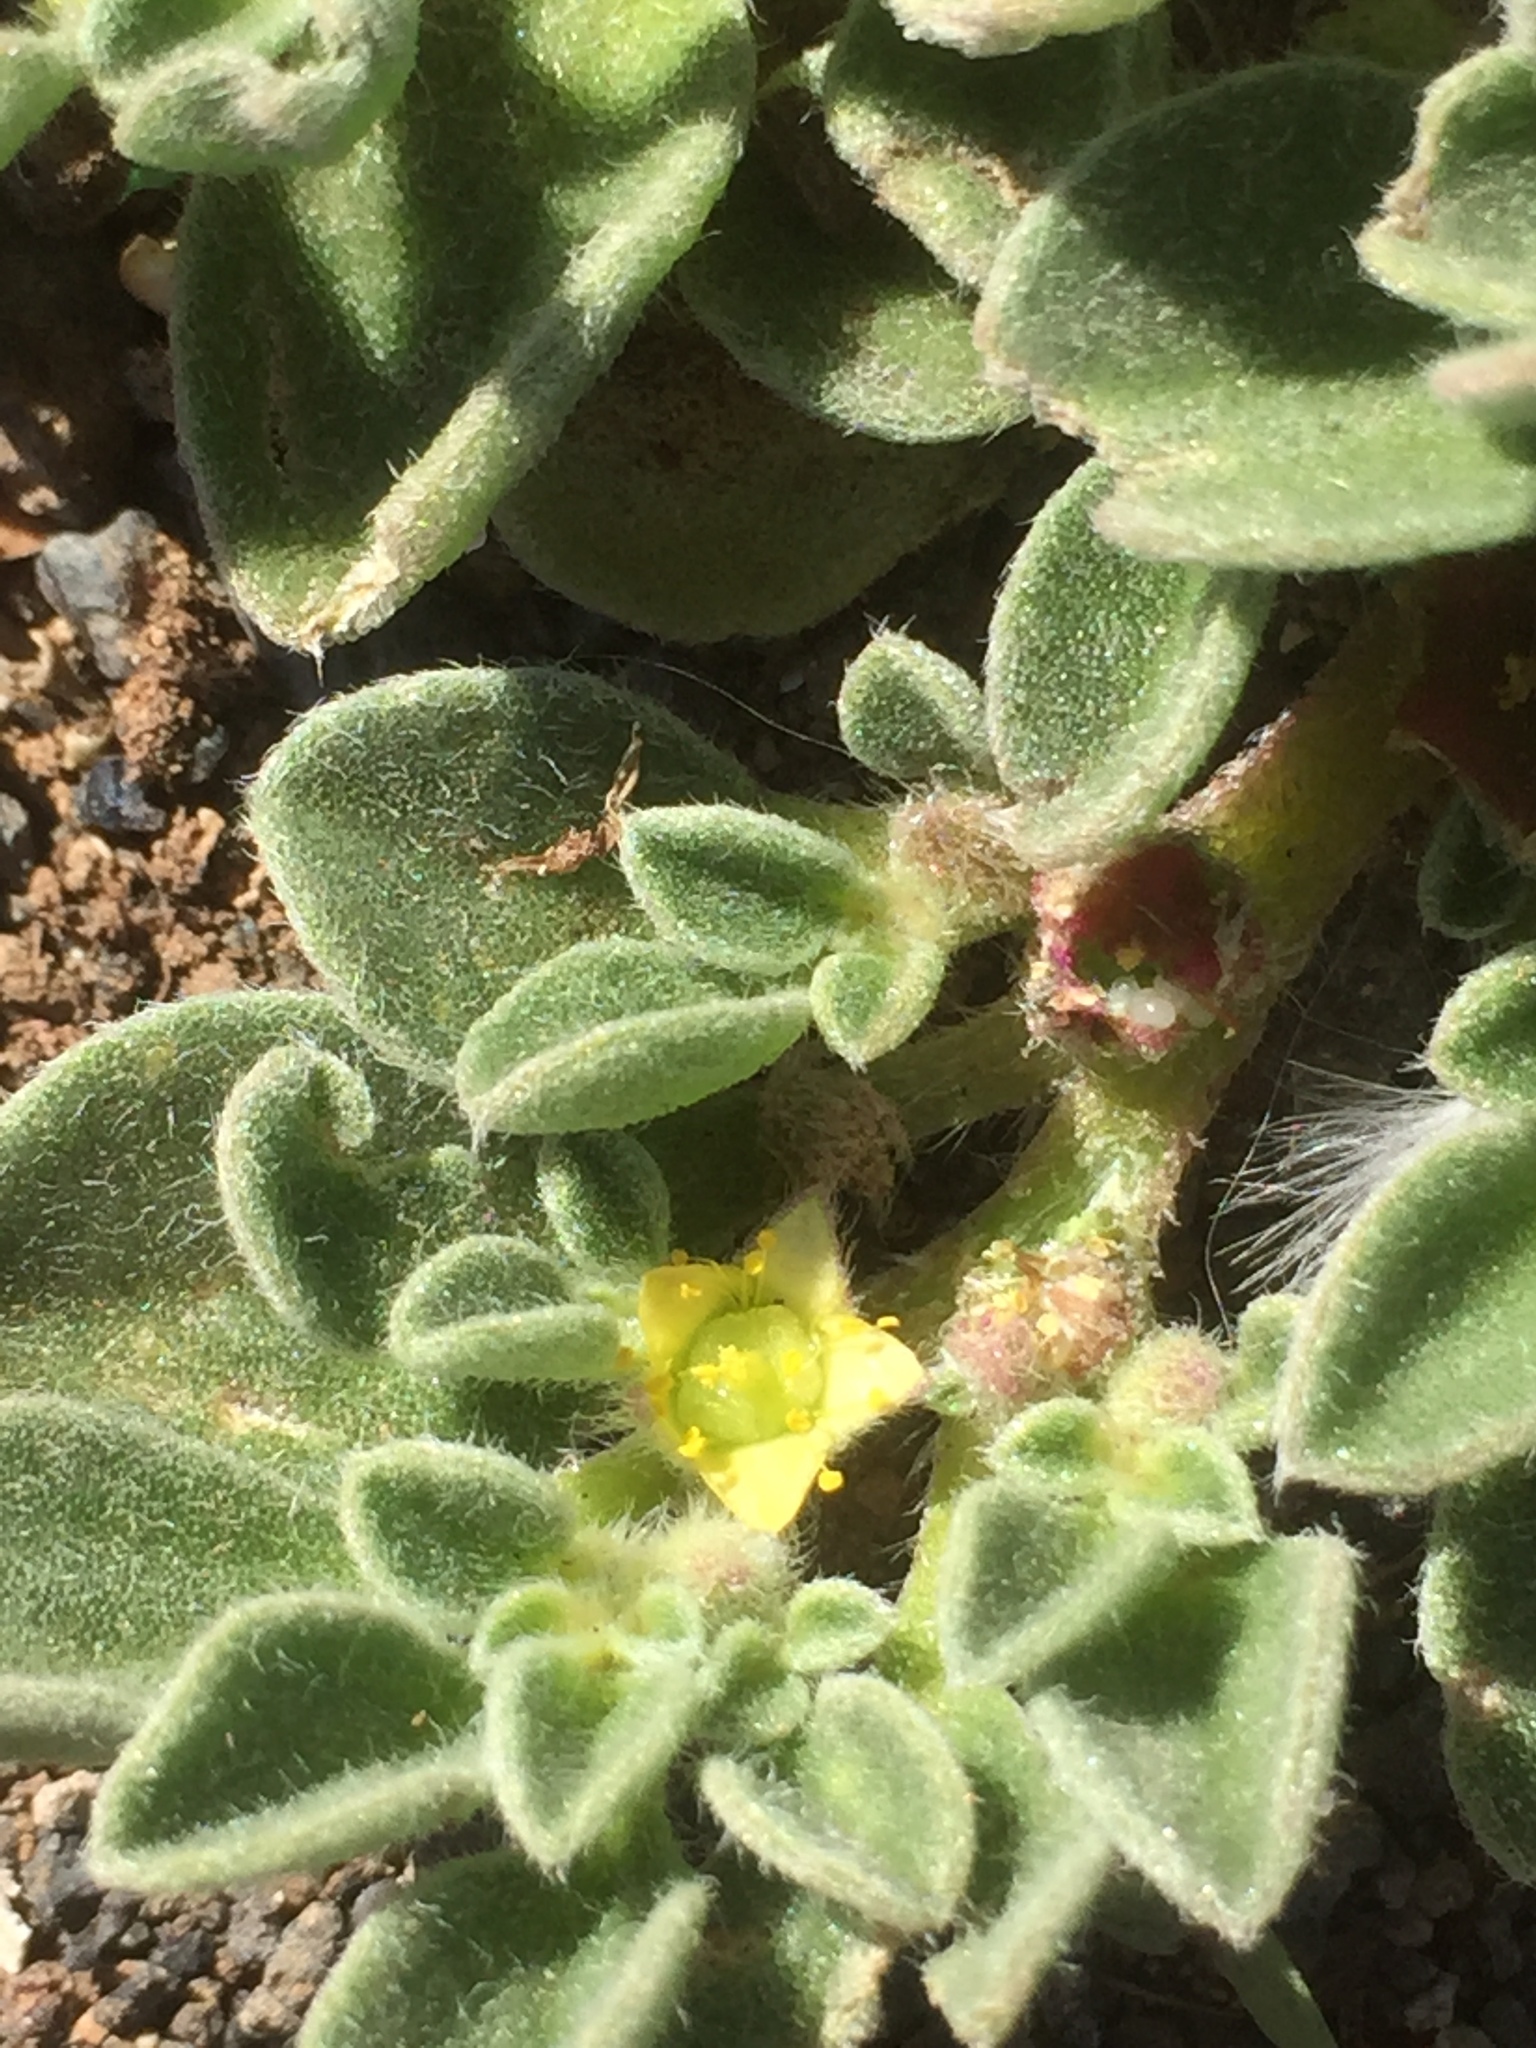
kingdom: Plantae
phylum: Tracheophyta
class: Magnoliopsida
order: Caryophyllales
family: Aizoaceae
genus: Aizoon
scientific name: Aizoon canariense
